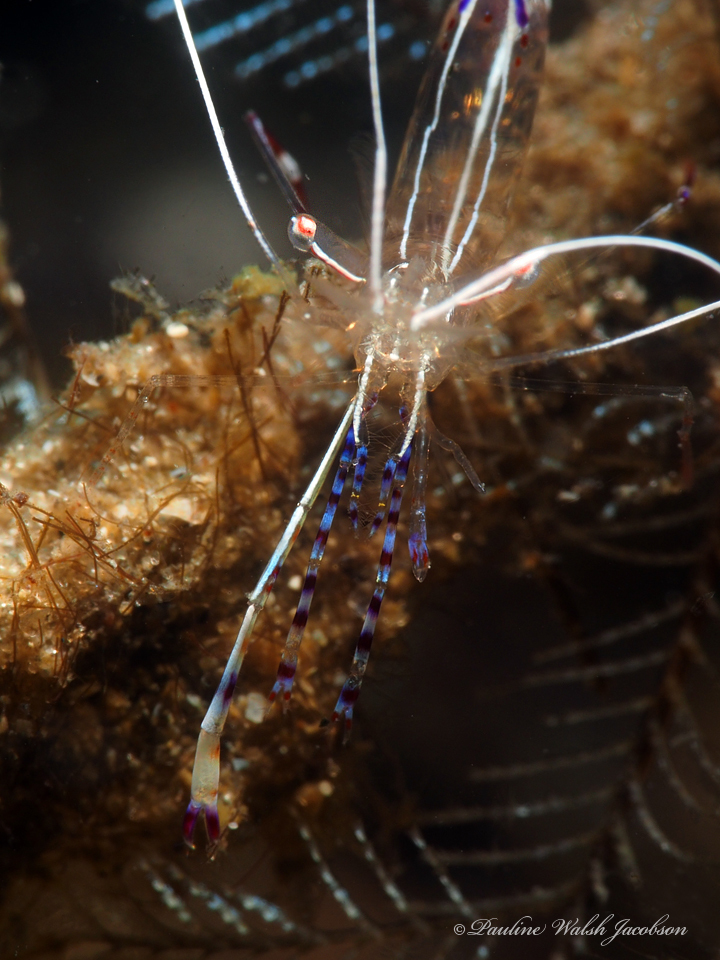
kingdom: Animalia
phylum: Arthropoda
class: Malacostraca
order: Decapoda
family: Palaemonidae
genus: Ancylomenes
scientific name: Ancylomenes pedersoni
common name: Pederson's cleaning shrimp
